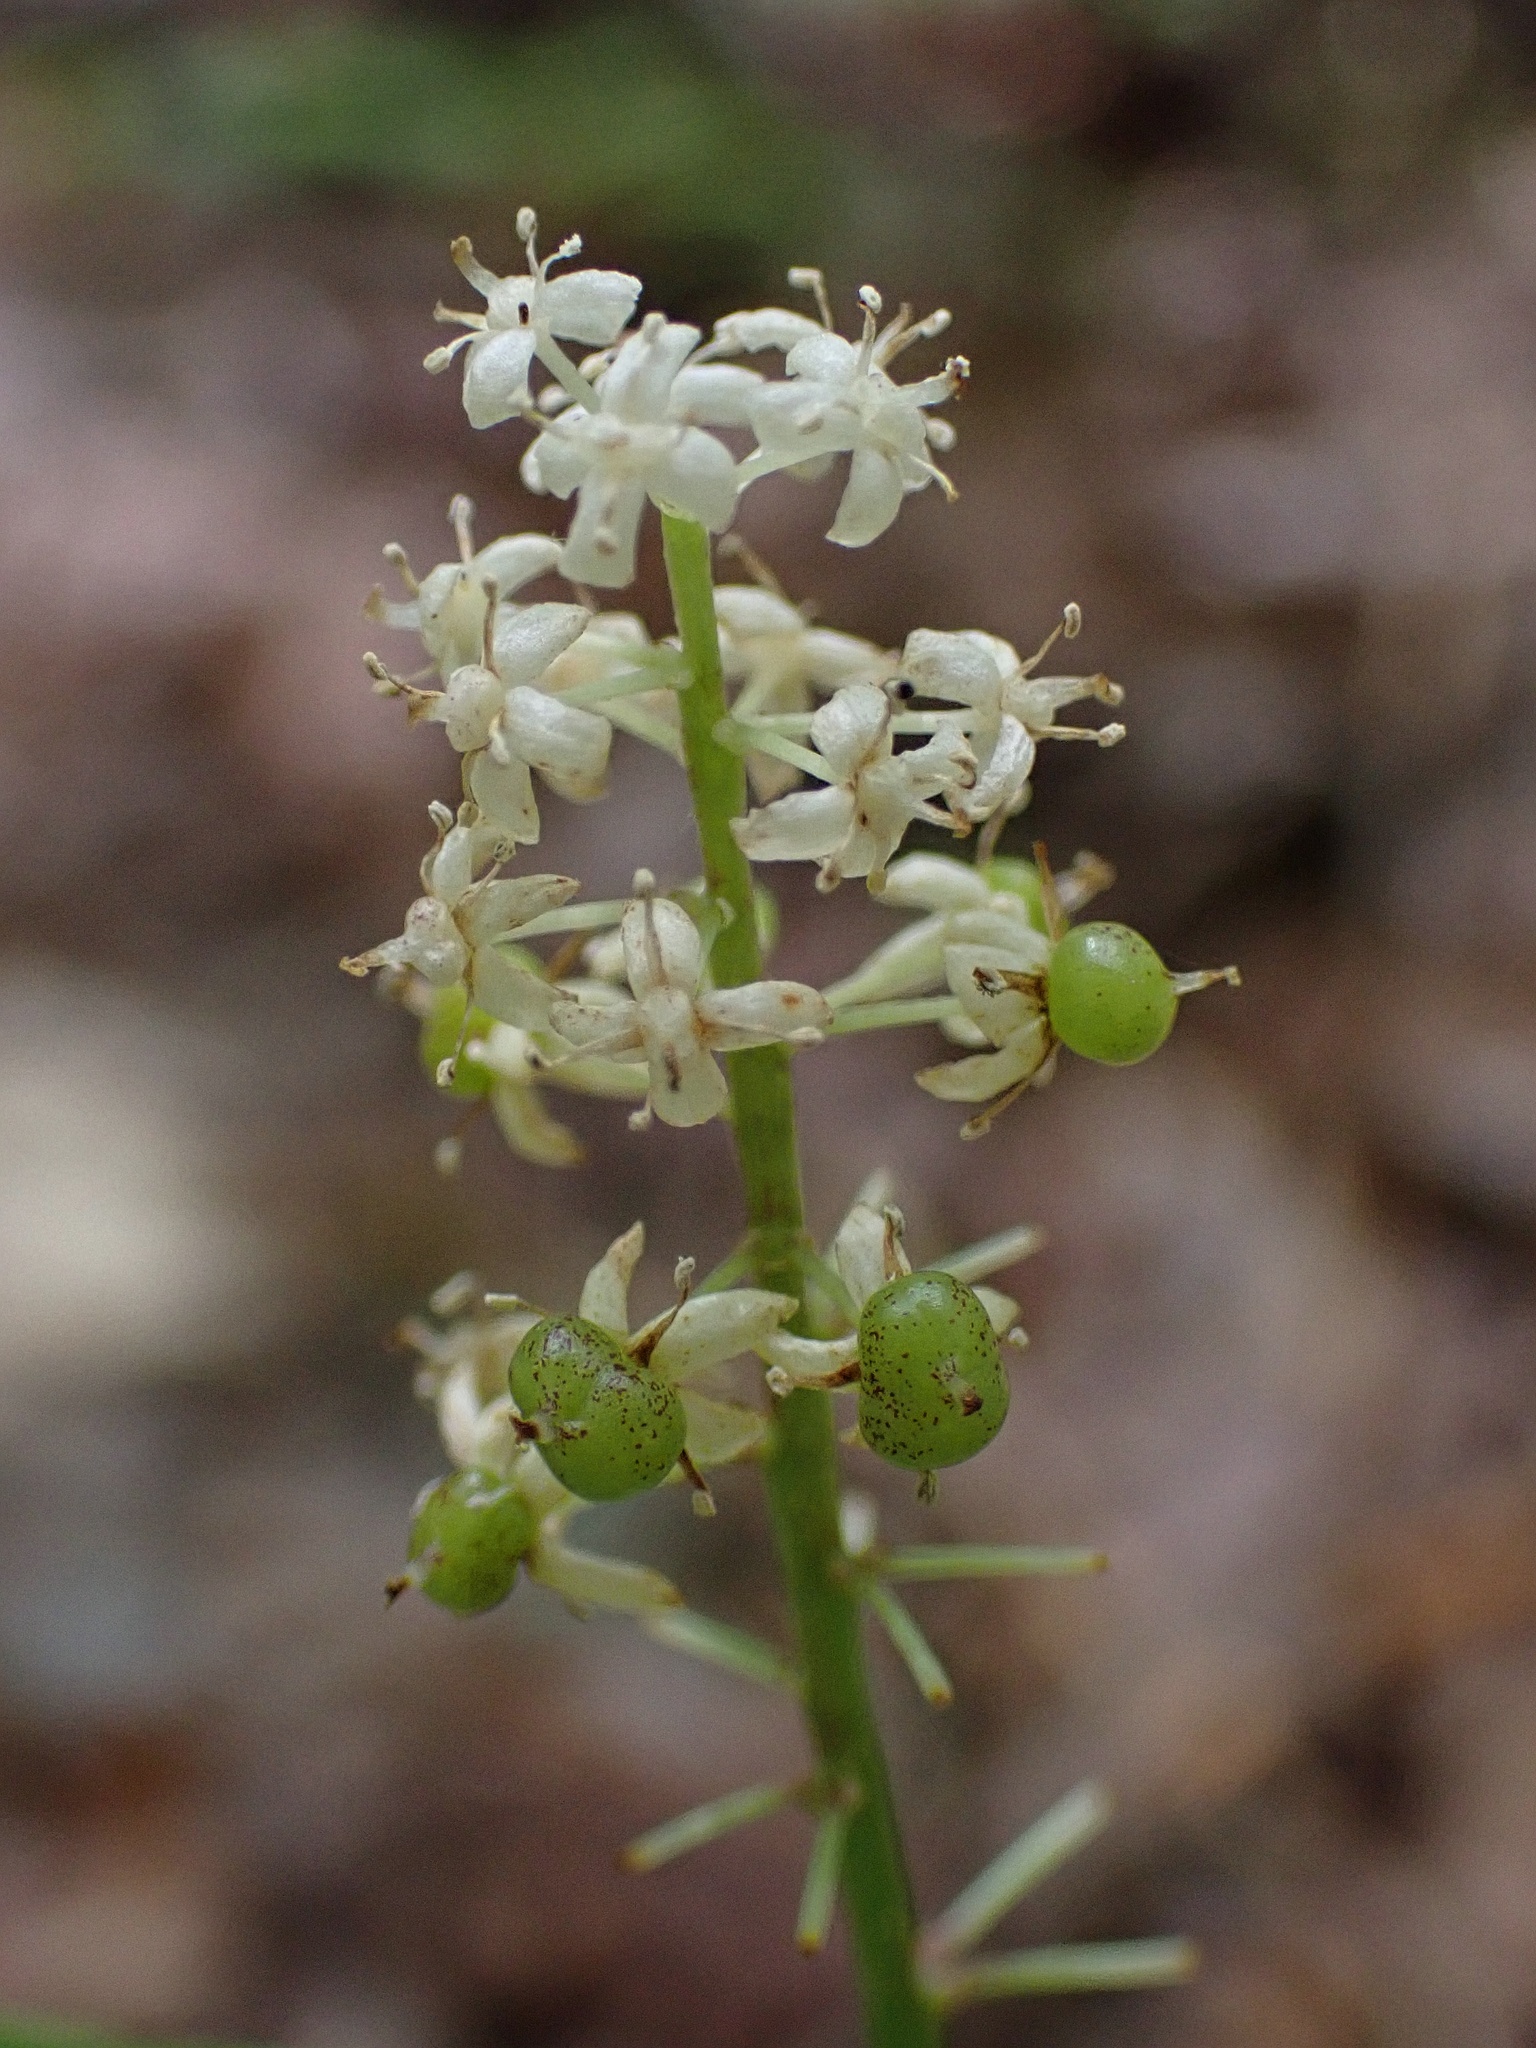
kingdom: Plantae
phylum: Tracheophyta
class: Liliopsida
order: Asparagales
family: Asparagaceae
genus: Maianthemum
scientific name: Maianthemum canadense
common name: False lily-of-the-valley
